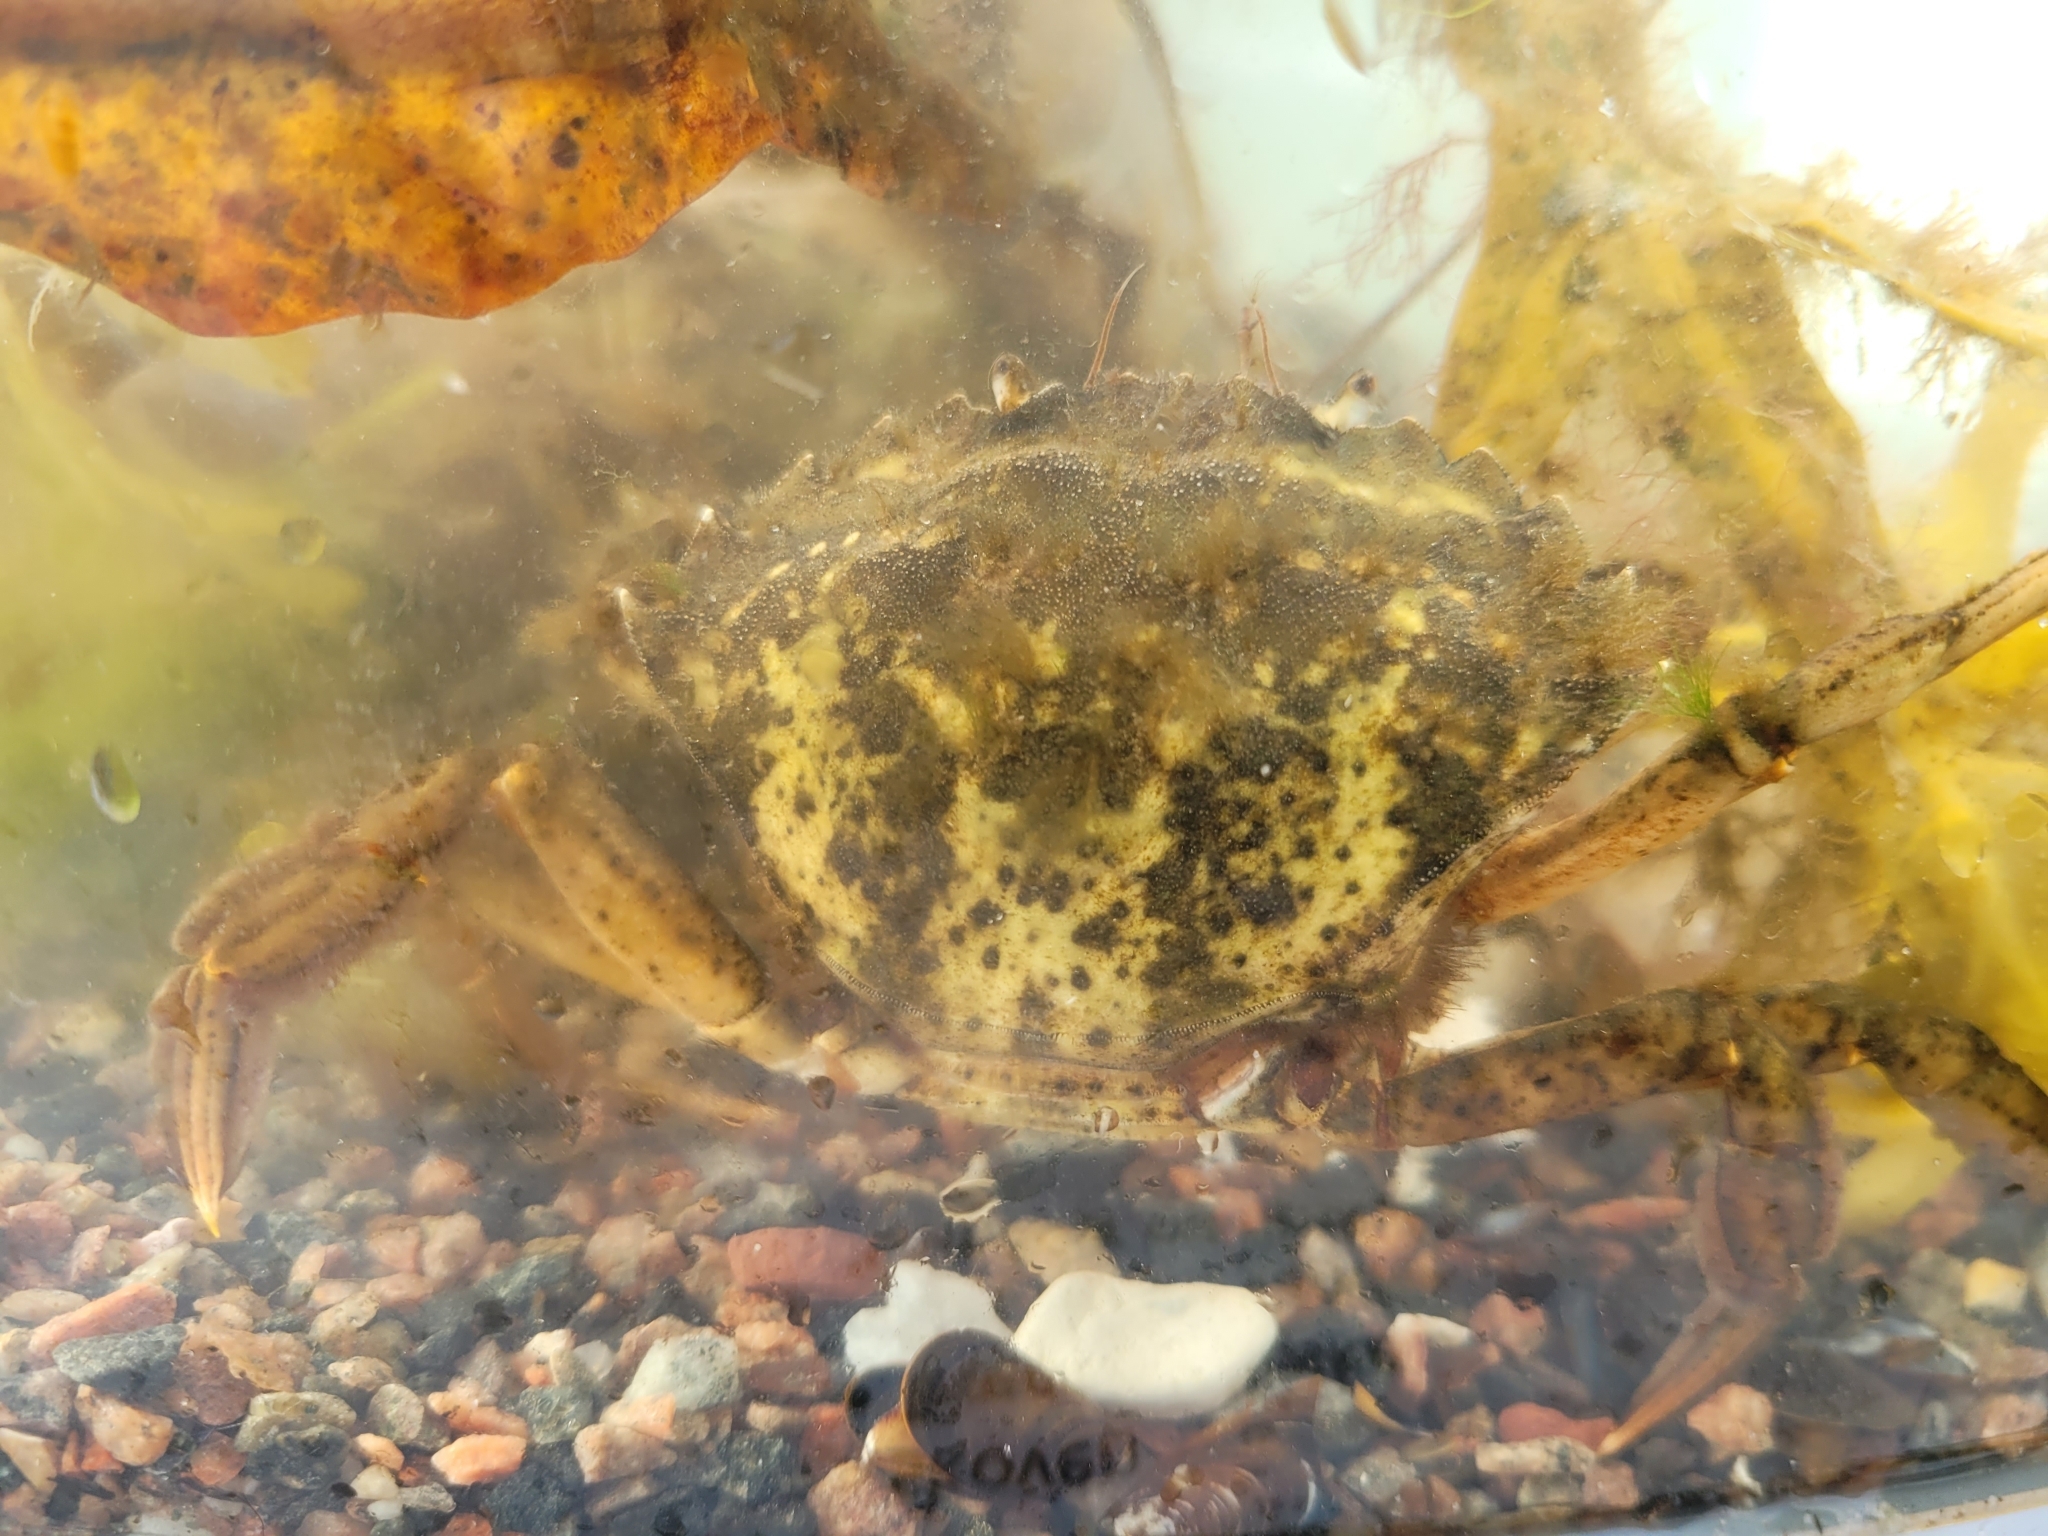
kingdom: Animalia
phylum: Arthropoda
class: Malacostraca
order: Decapoda
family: Carcinidae
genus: Carcinus
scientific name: Carcinus maenas
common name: European green crab
